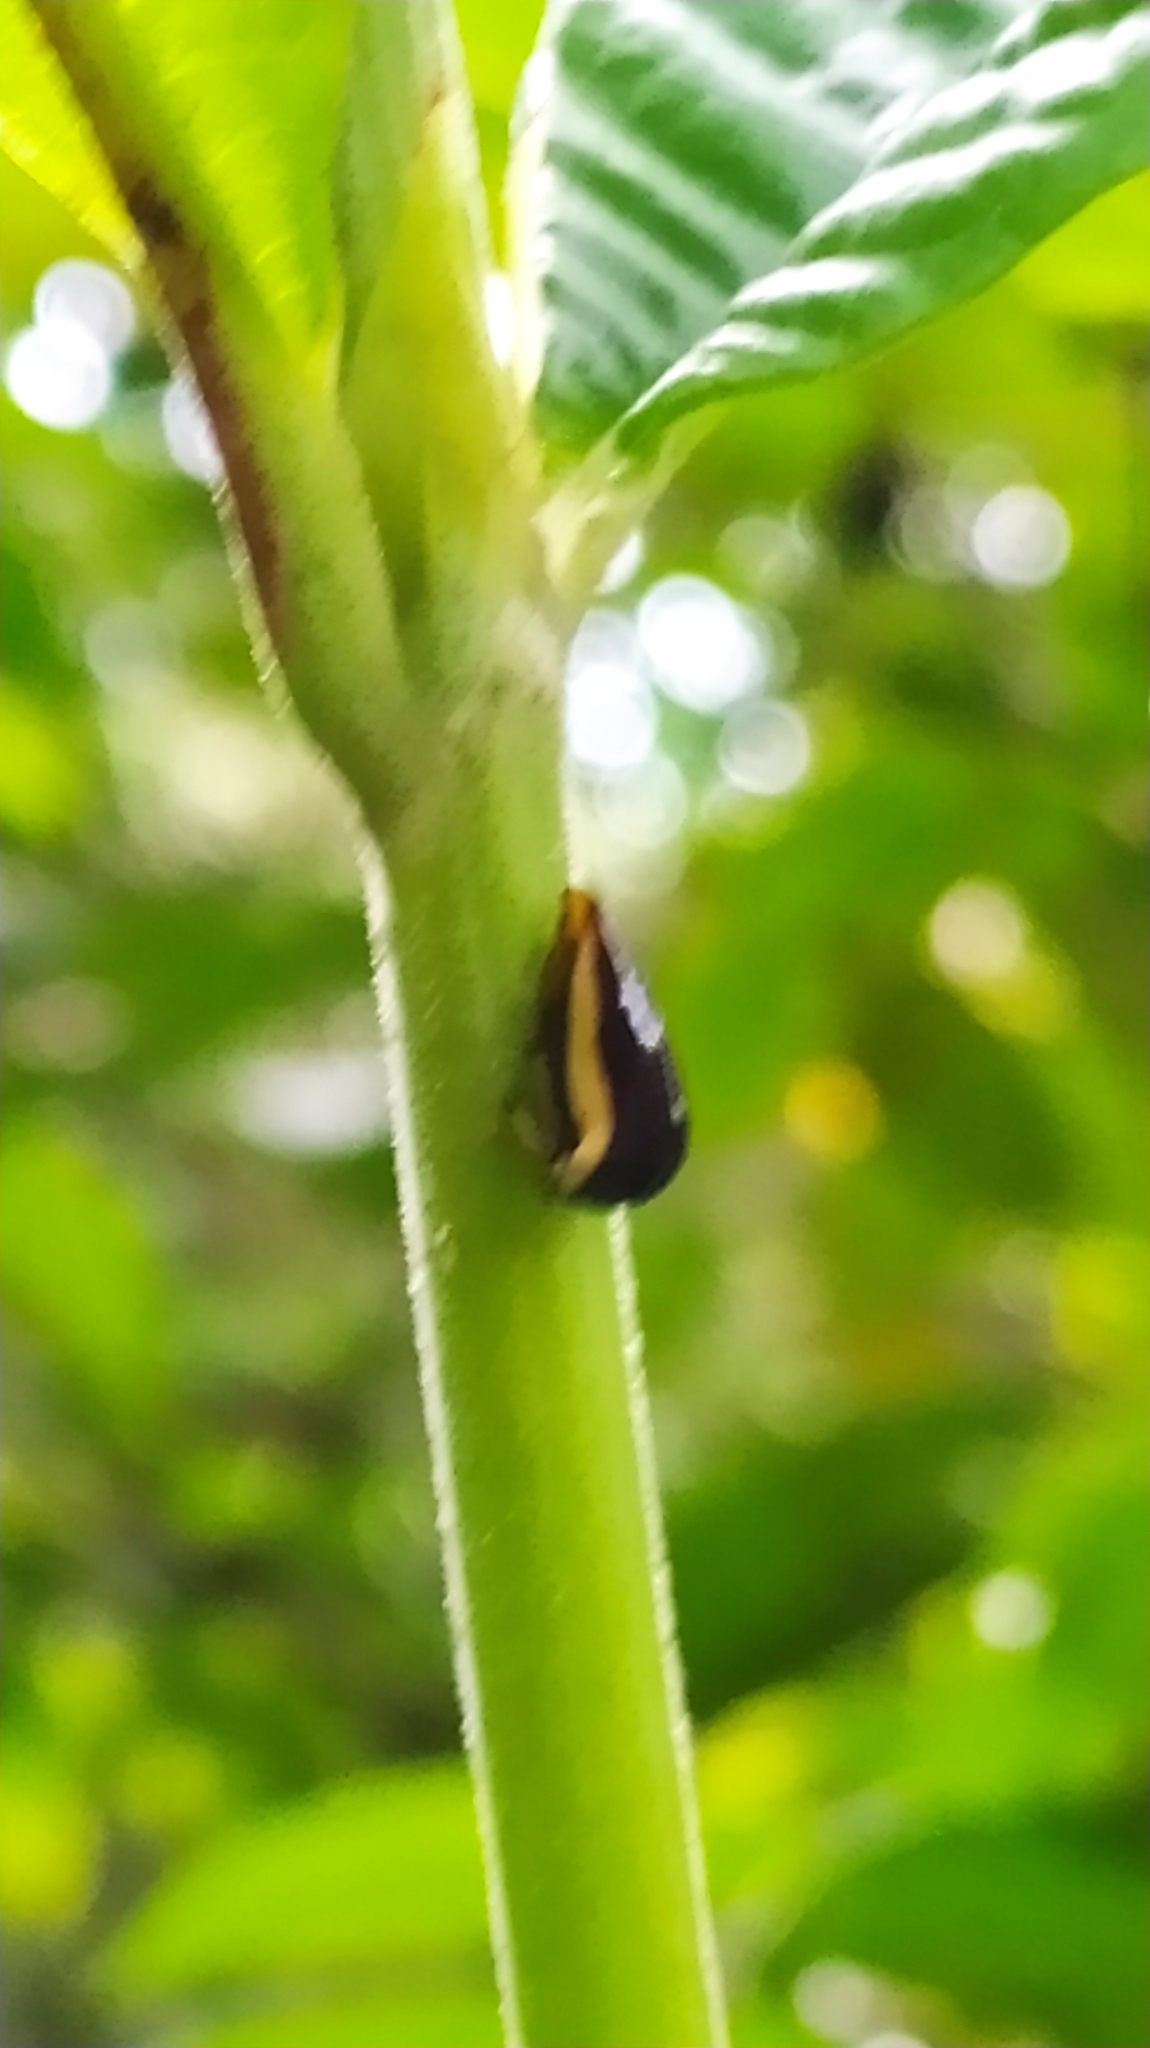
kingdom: Animalia
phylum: Arthropoda
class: Insecta
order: Hemiptera
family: Membracidae
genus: Darnis
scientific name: Darnis lateralis
